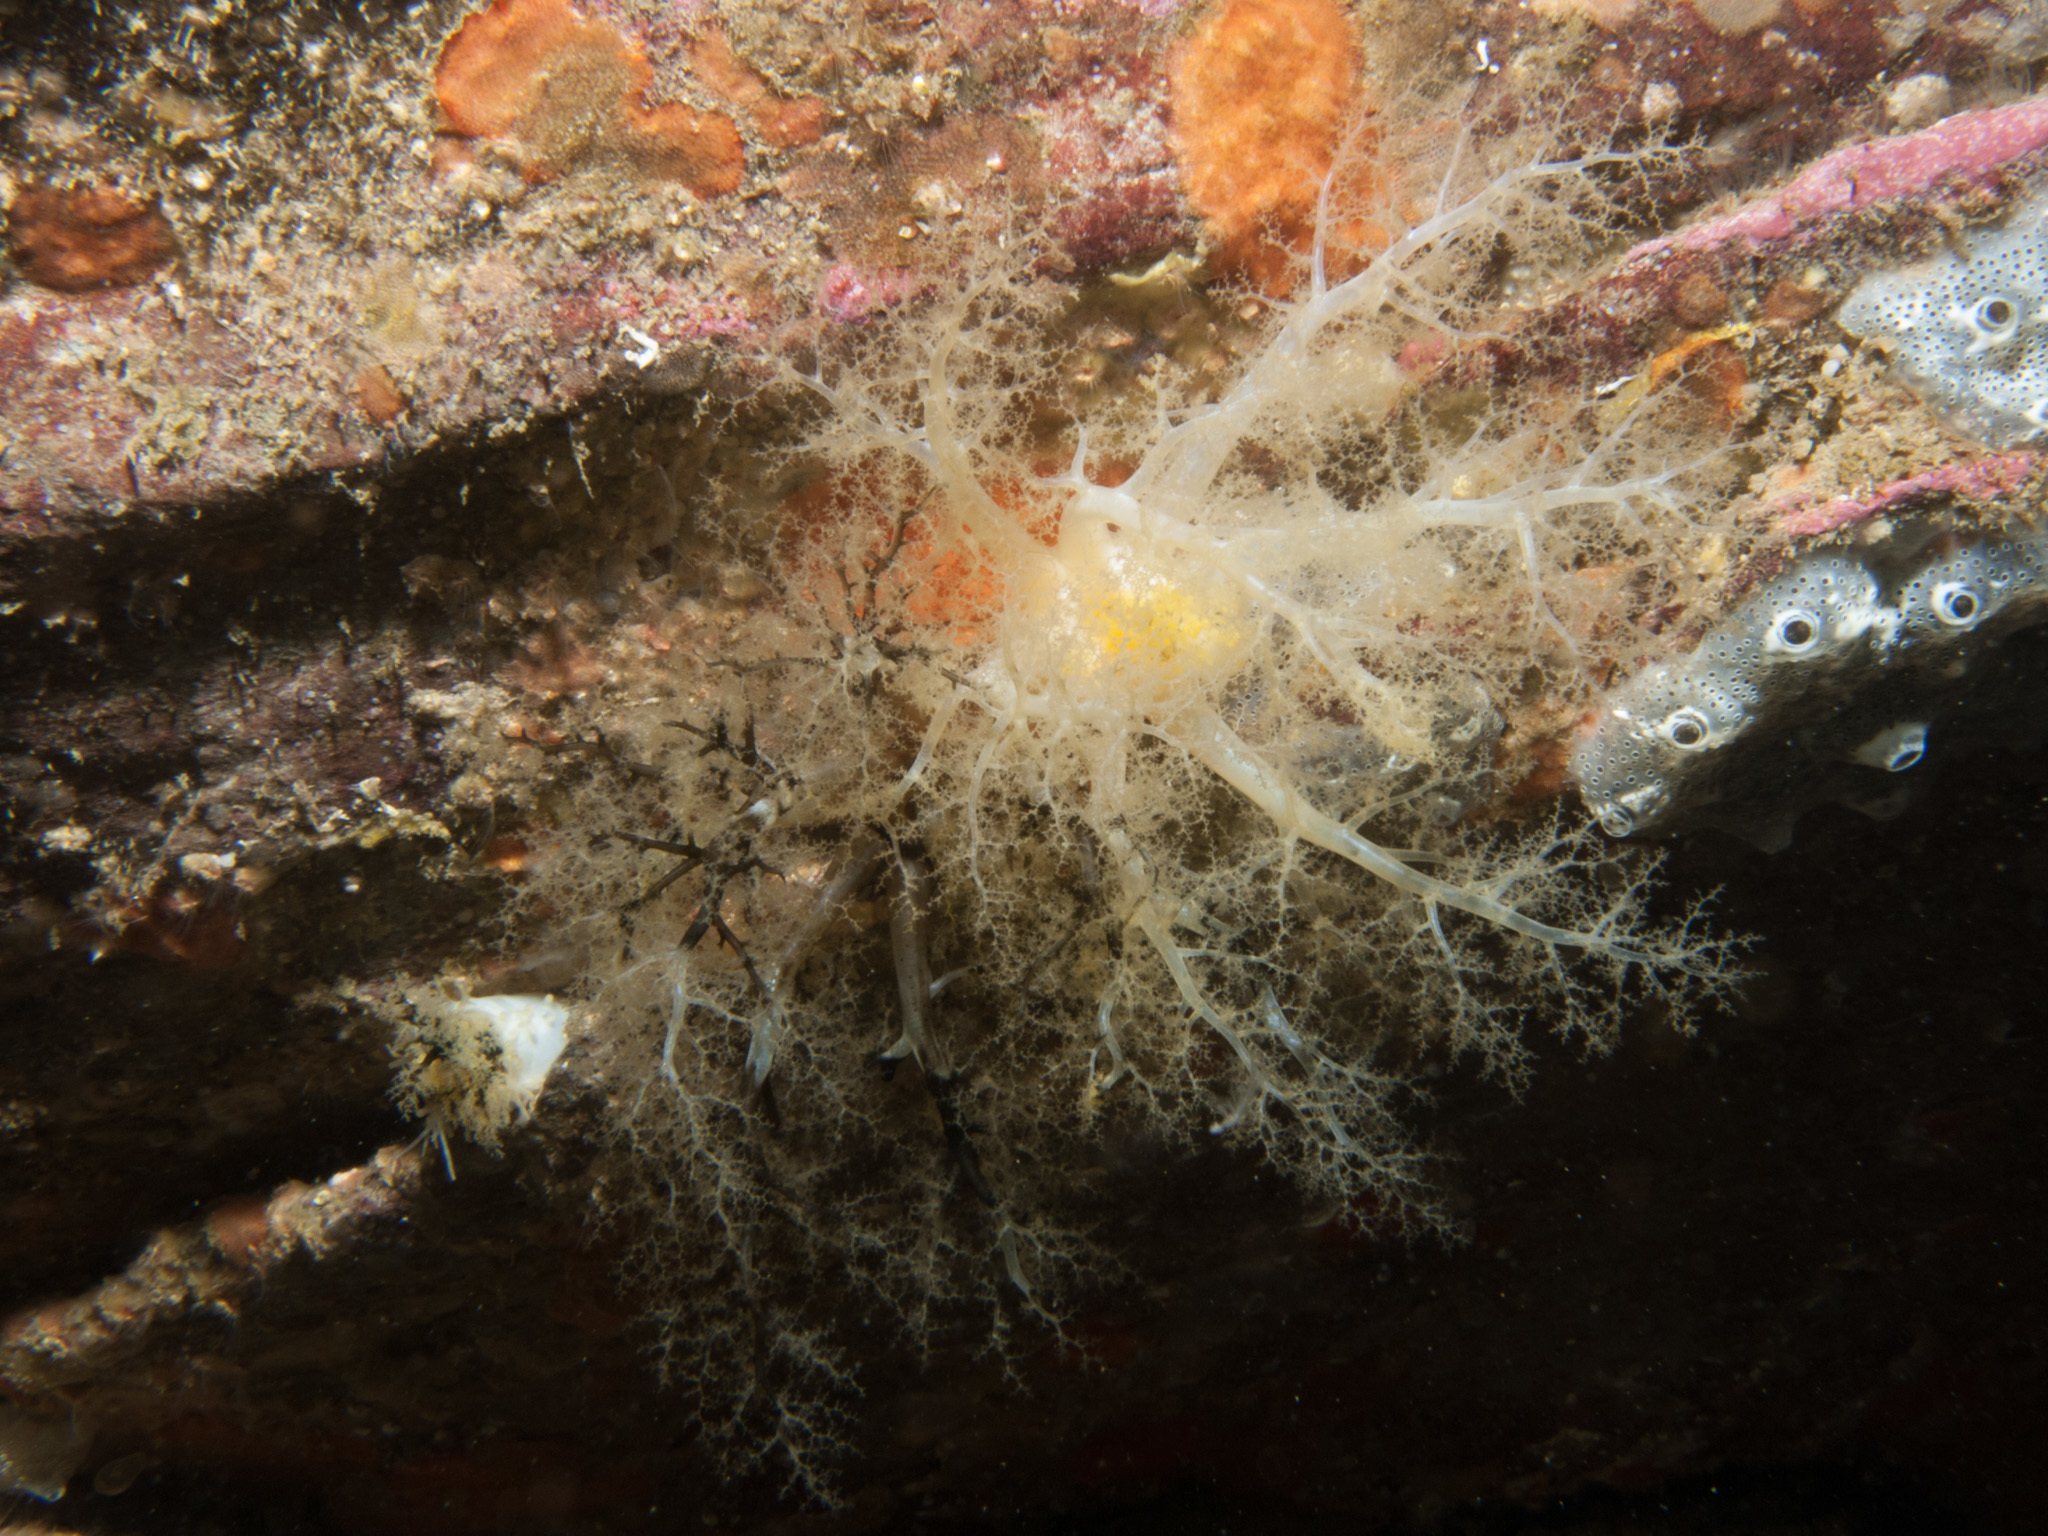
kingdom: Animalia
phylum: Echinodermata
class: Holothuroidea
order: Dendrochirotida
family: Cucumariidae
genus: Pawsonia
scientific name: Pawsonia saxicola
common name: Sea gherkin
